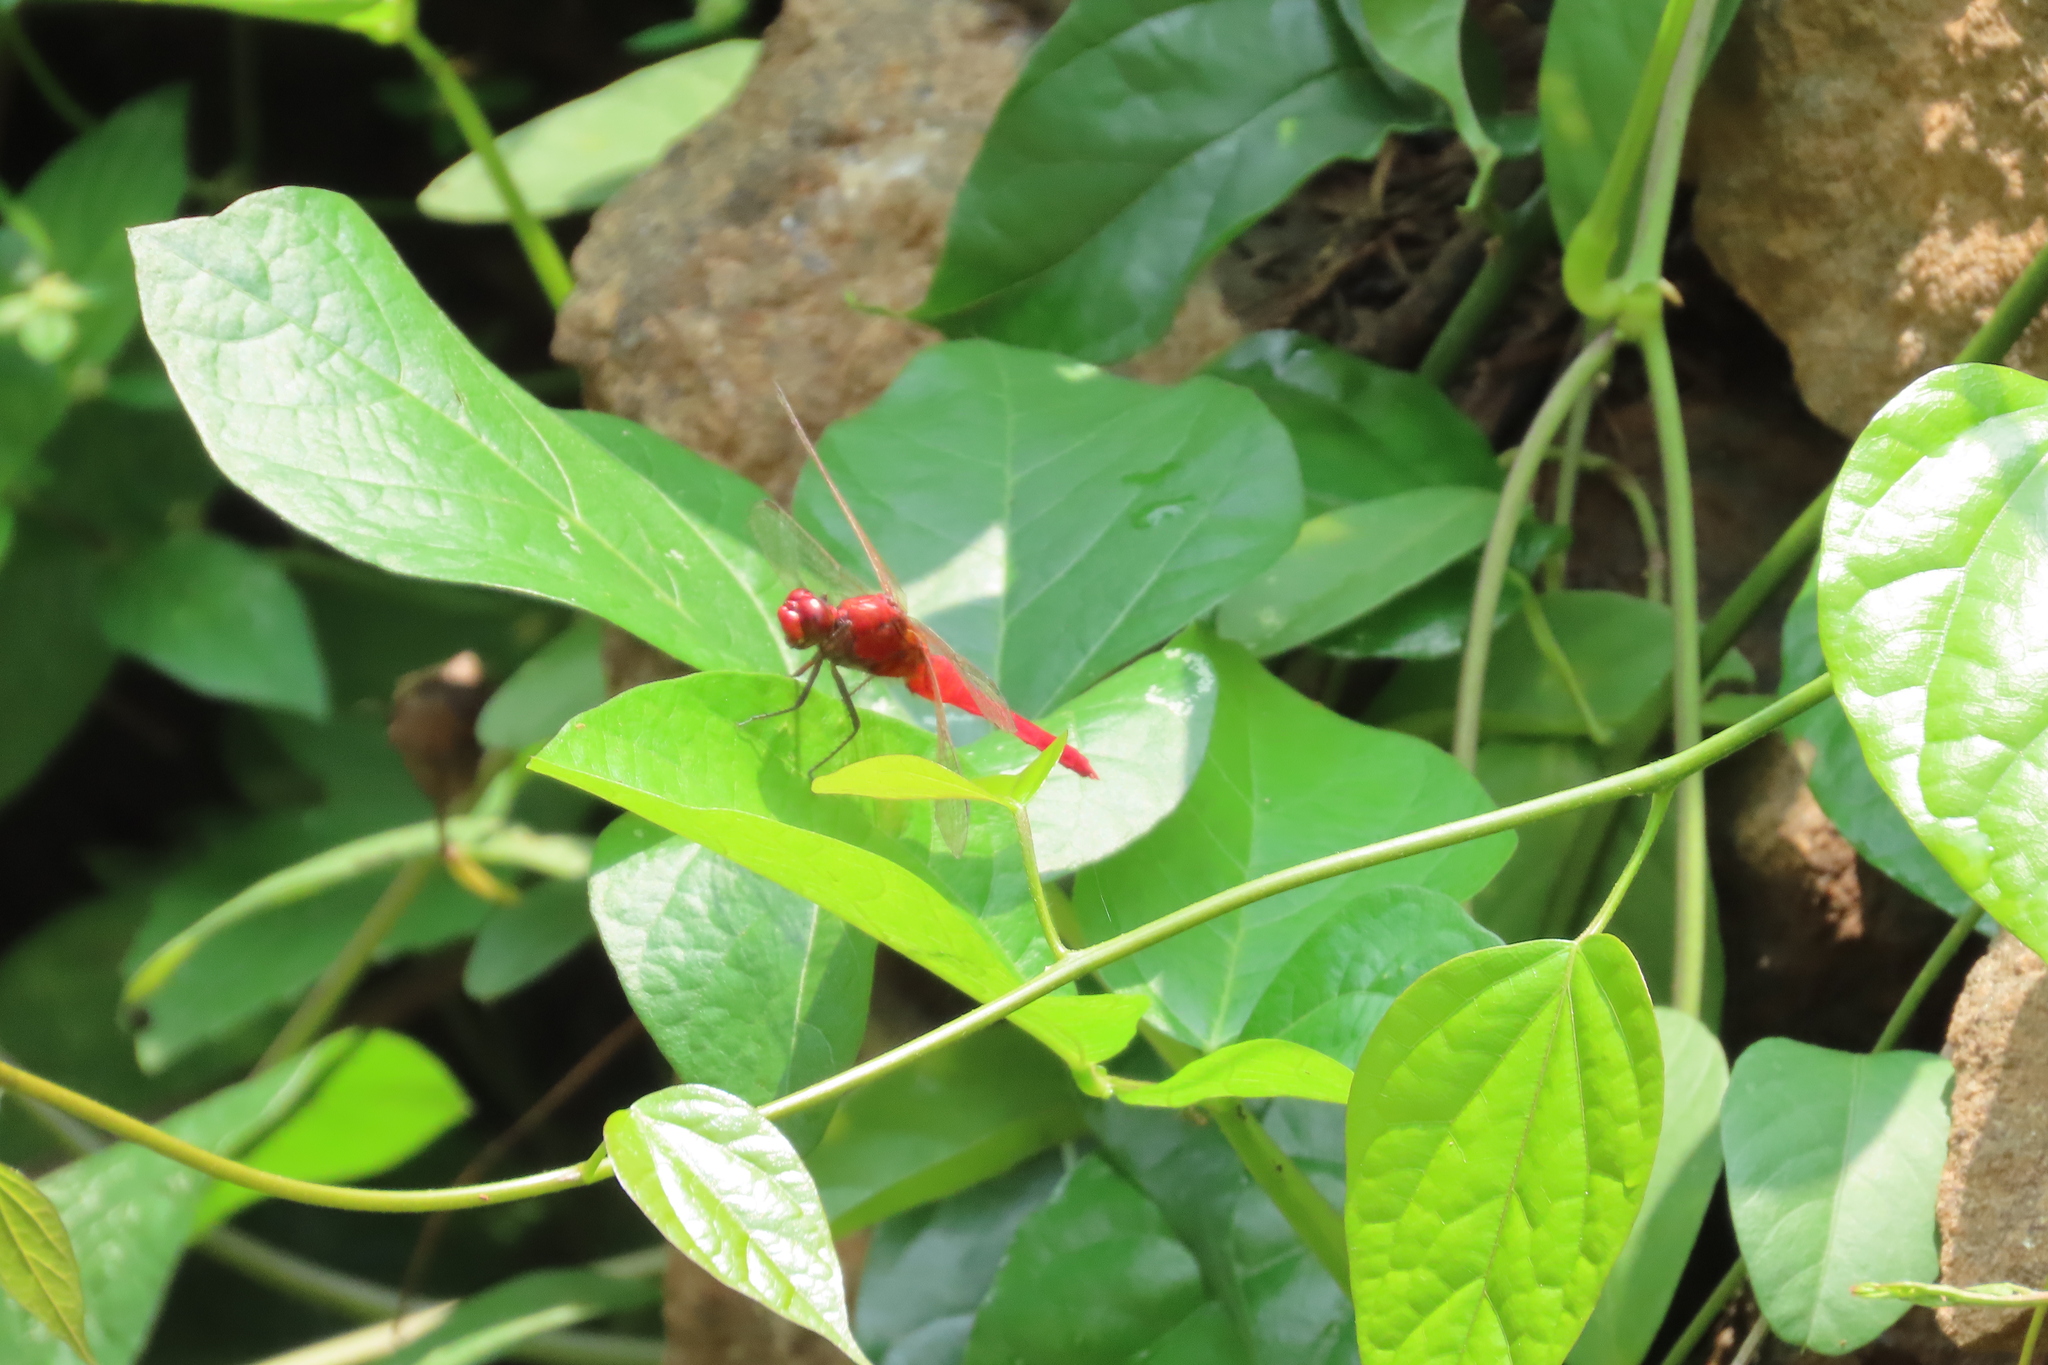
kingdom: Animalia
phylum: Arthropoda
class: Insecta
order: Odonata
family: Libellulidae
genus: Rhodothemis
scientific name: Rhodothemis rufa
